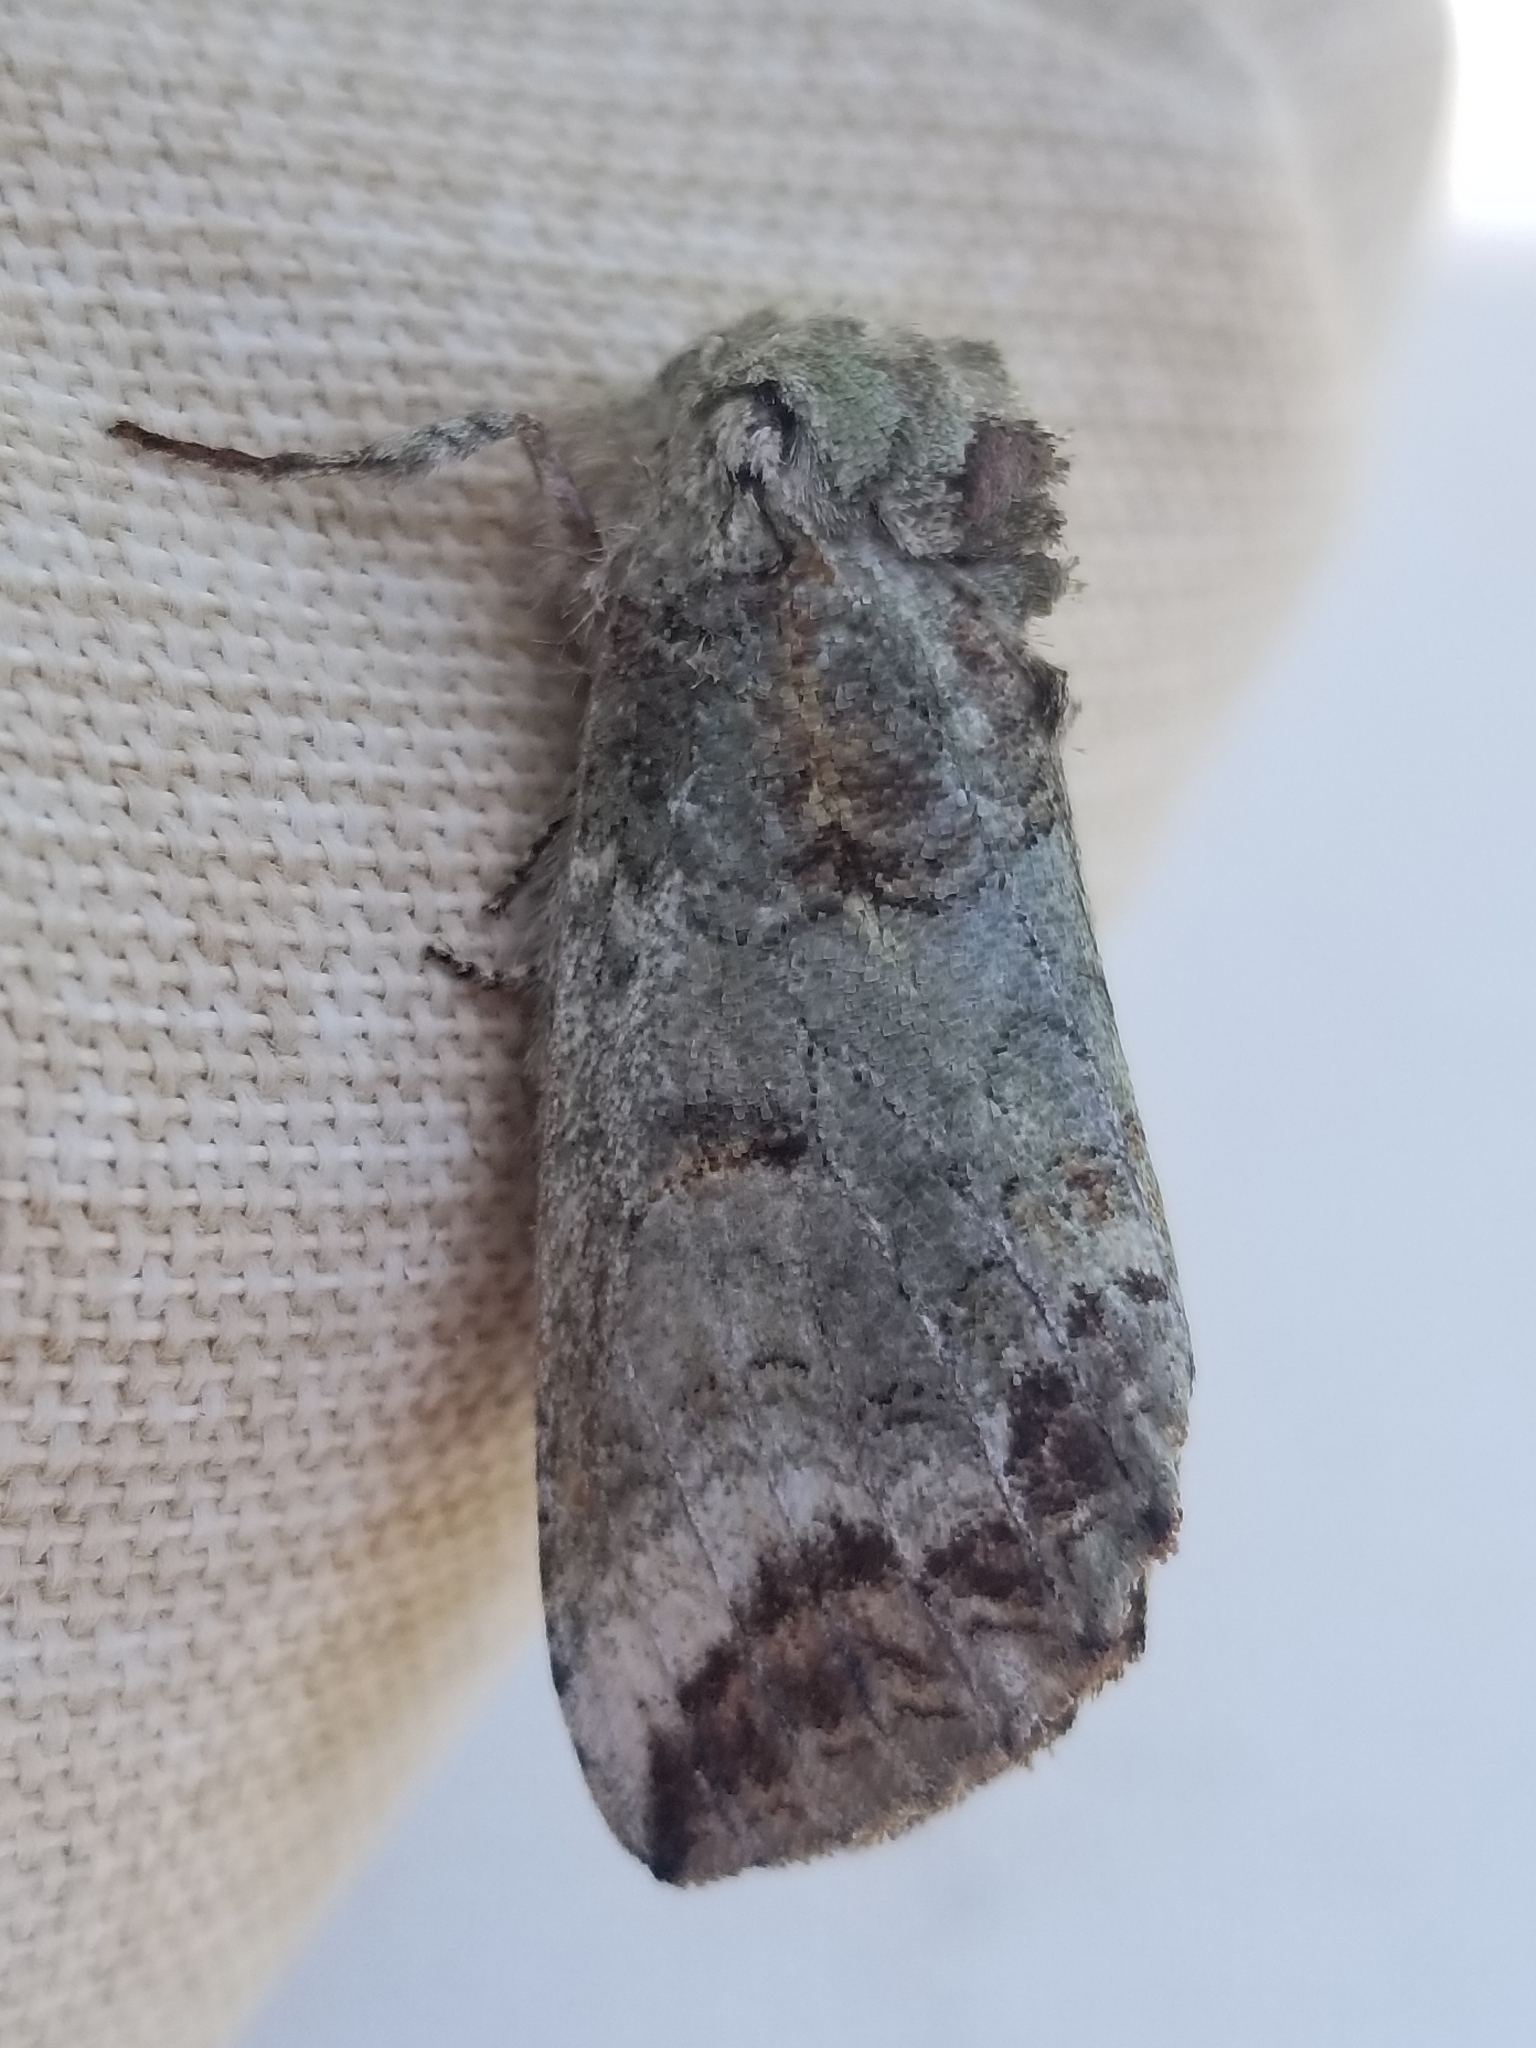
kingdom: Animalia
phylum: Arthropoda
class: Insecta
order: Lepidoptera
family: Notodontidae
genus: Heterocampa
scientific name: Heterocampa astarte
